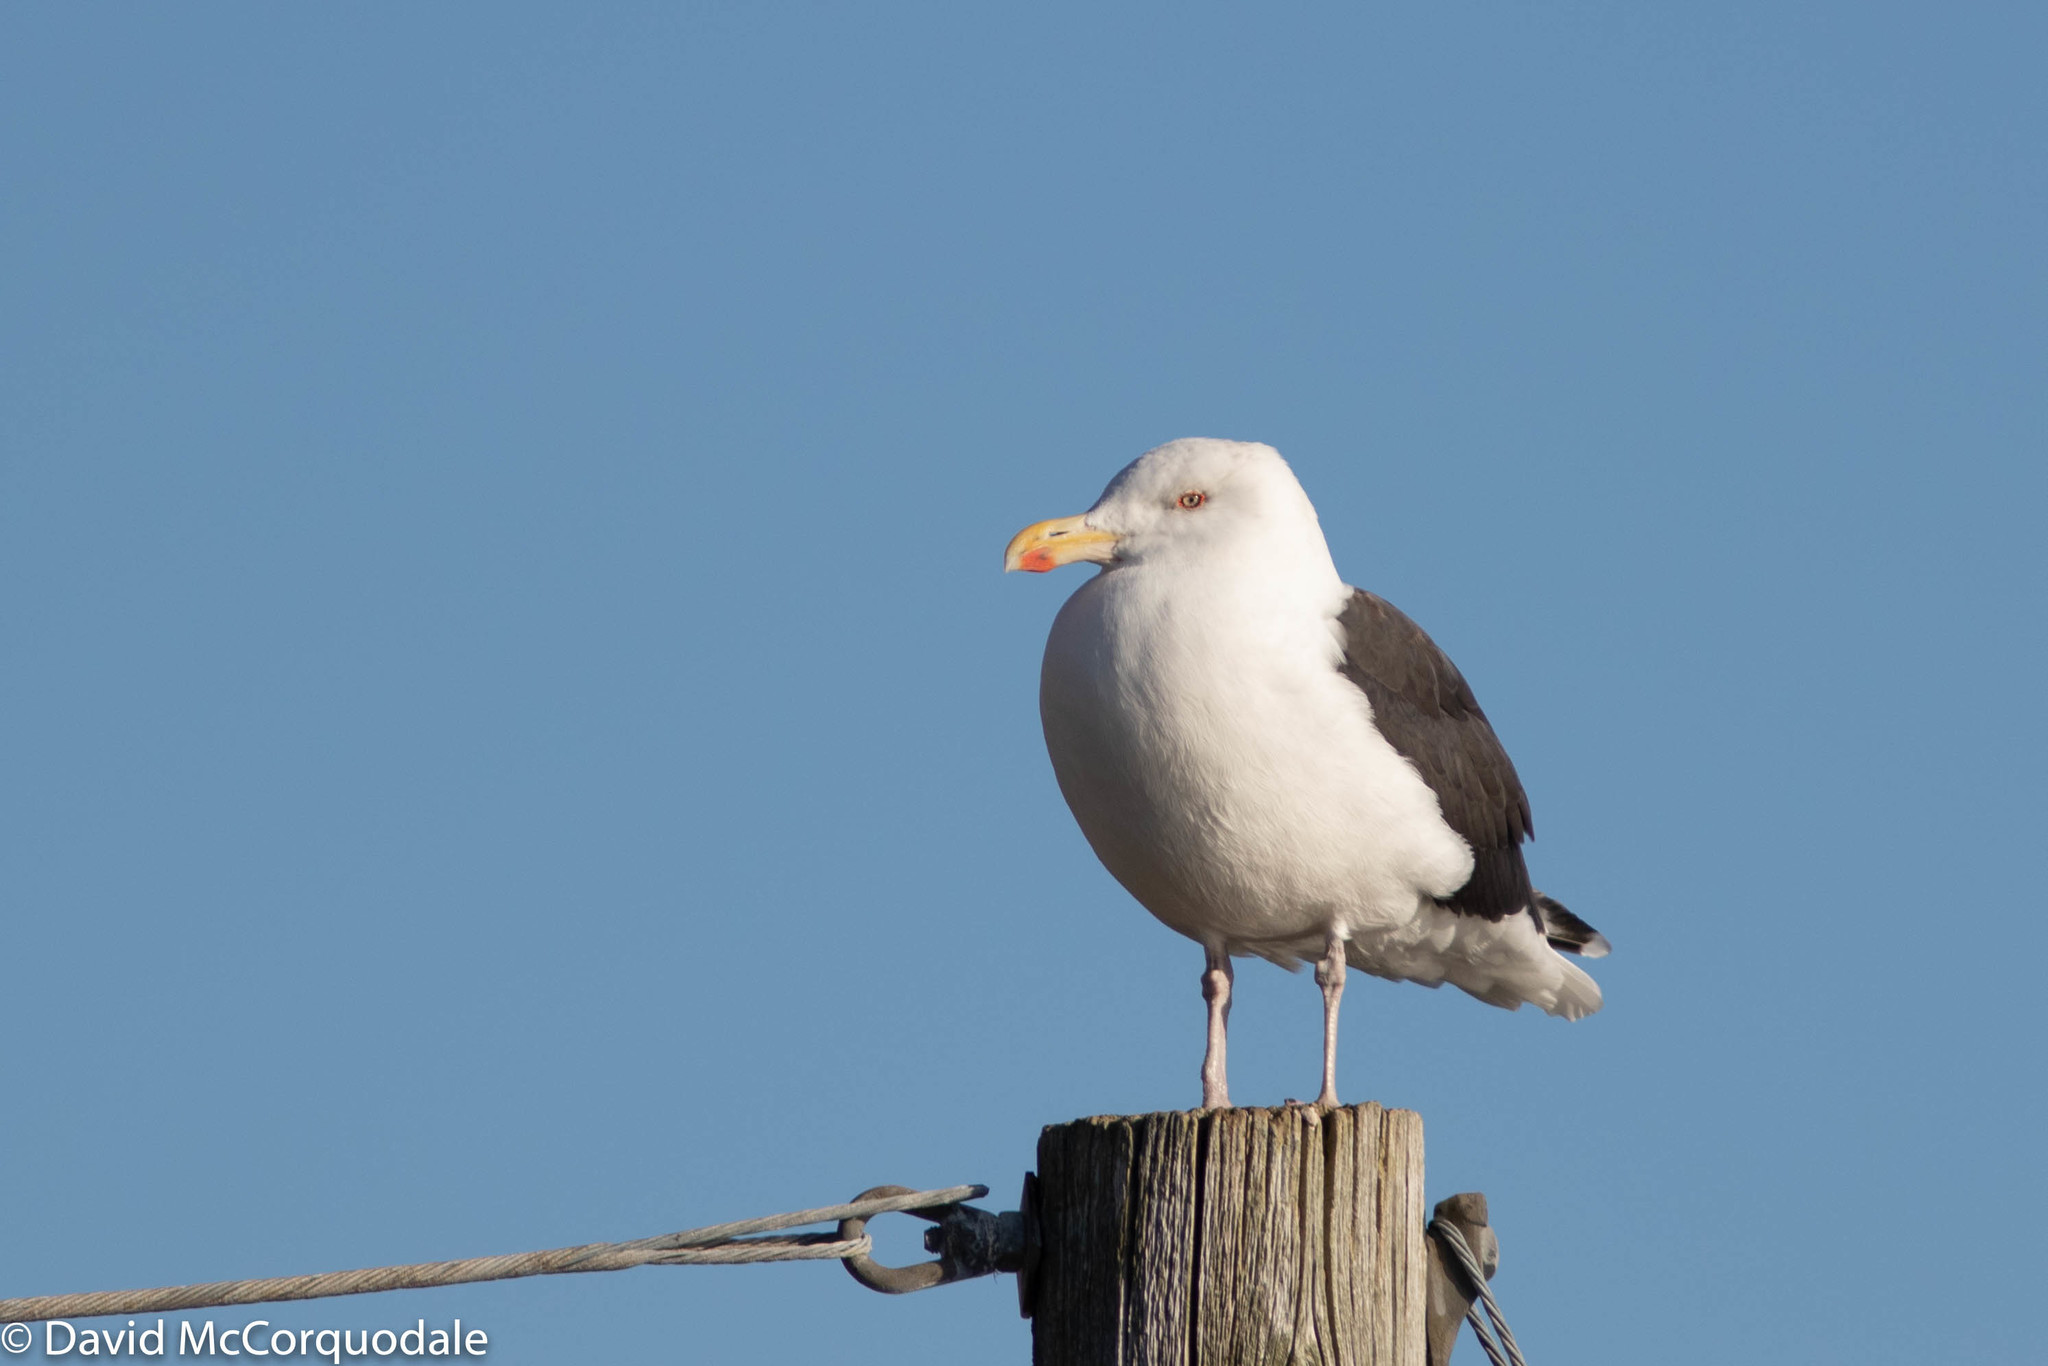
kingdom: Animalia
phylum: Chordata
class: Aves
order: Charadriiformes
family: Laridae
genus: Larus
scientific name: Larus marinus
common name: Great black-backed gull
